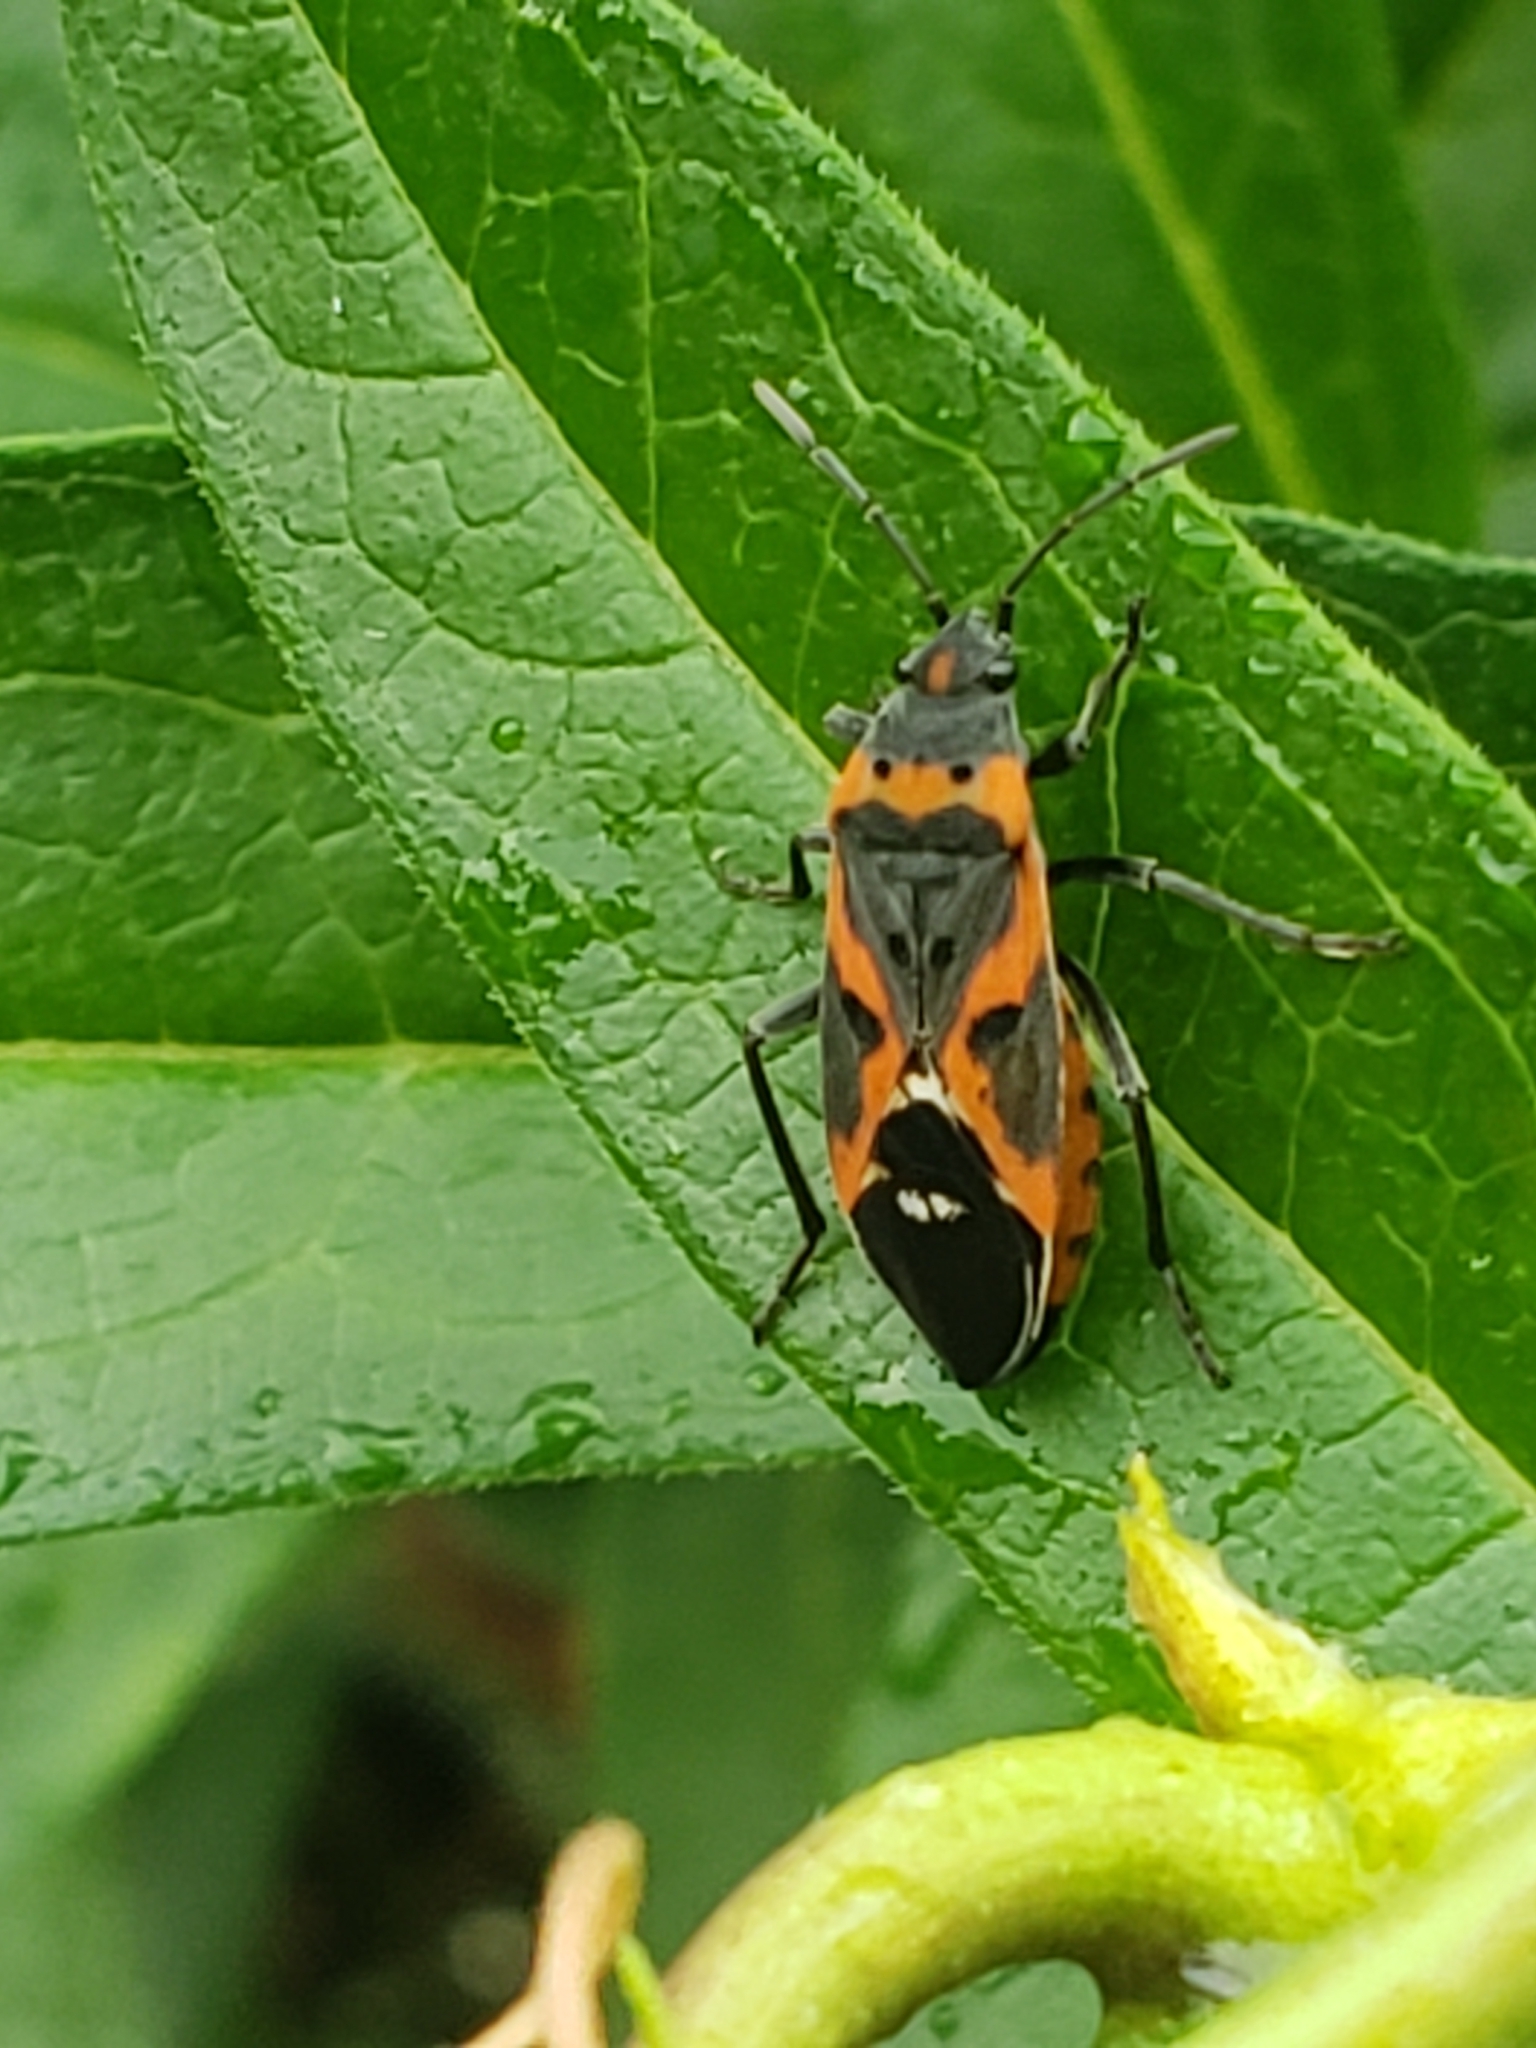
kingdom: Animalia
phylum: Arthropoda
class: Insecta
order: Hemiptera
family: Lygaeidae
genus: Lygaeus
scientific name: Lygaeus kalmii
